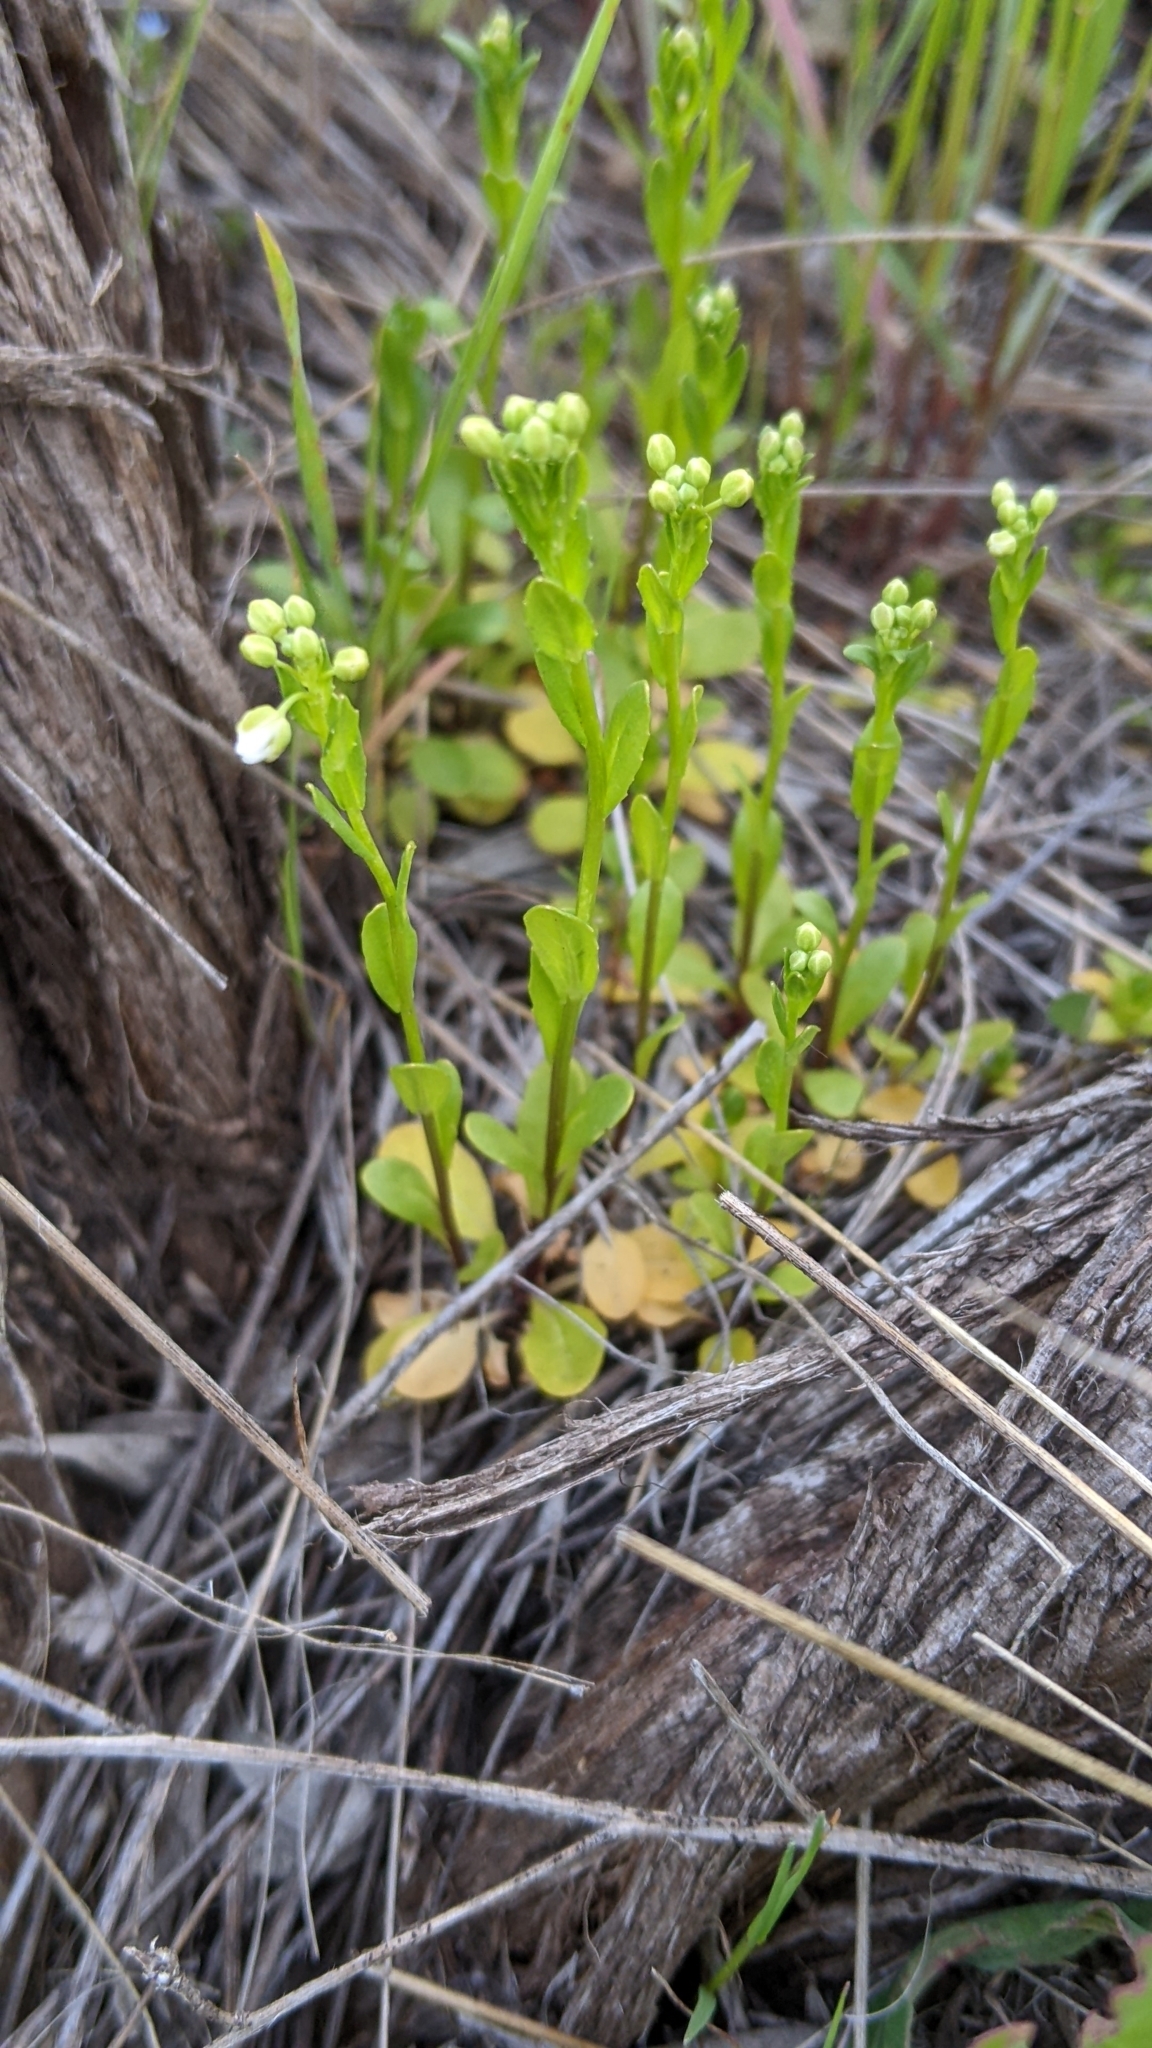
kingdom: Plantae
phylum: Tracheophyta
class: Magnoliopsida
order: Brassicales
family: Brassicaceae
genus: Thlaspi
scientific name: Thlaspi arvense
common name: Field pennycress
